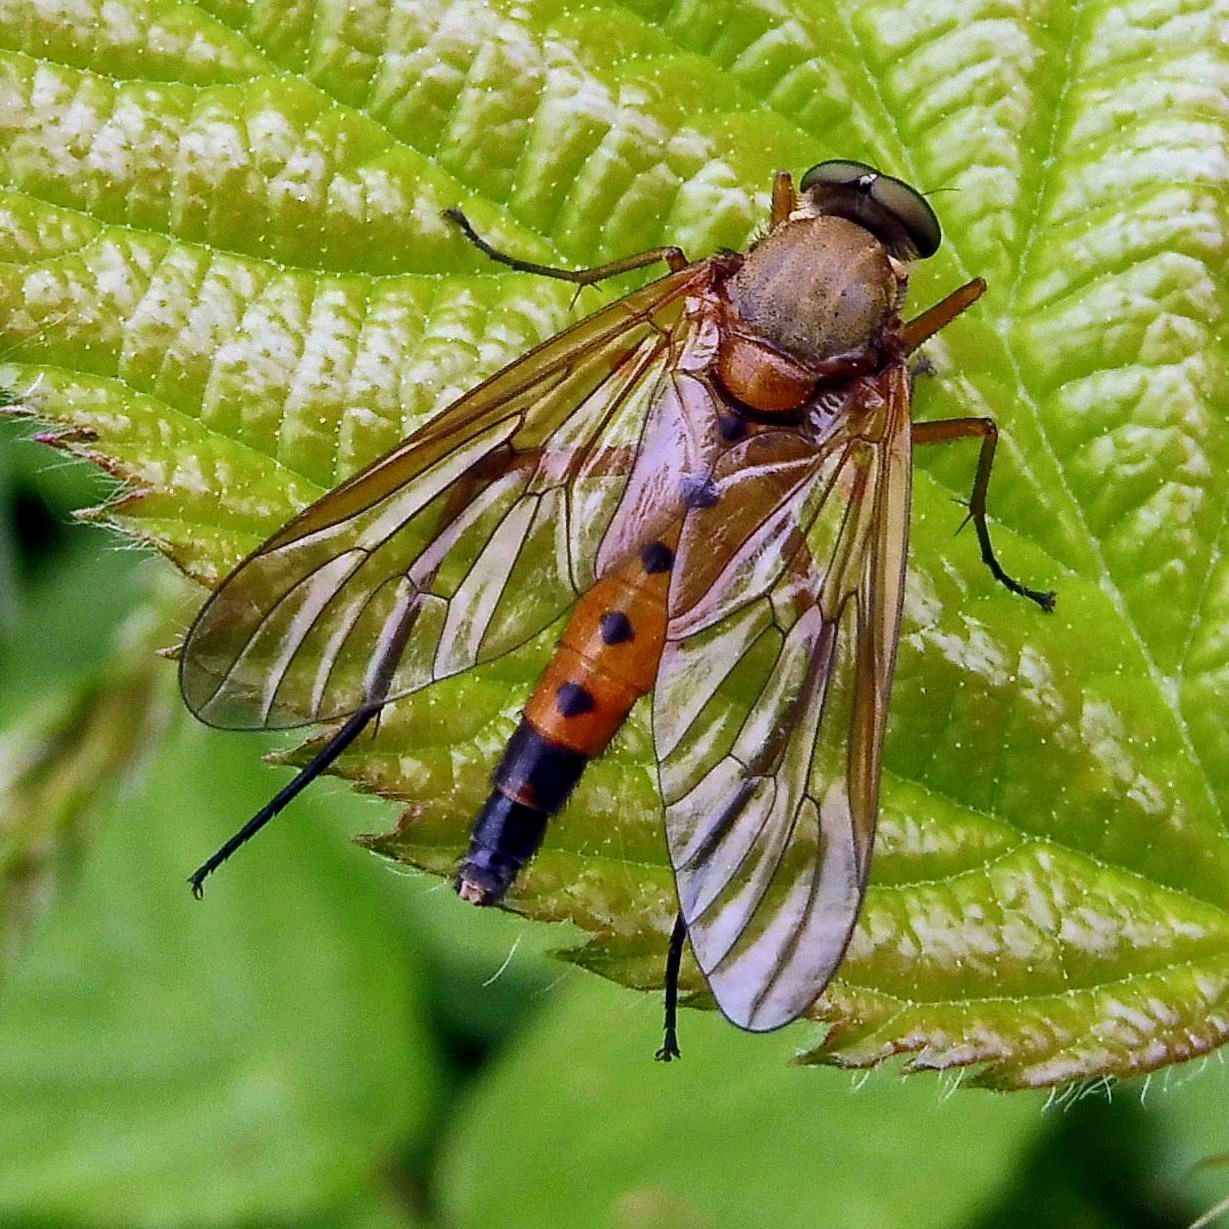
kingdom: Animalia
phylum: Arthropoda
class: Insecta
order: Diptera
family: Rhagionidae
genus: Rhagio
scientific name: Rhagio tringaria
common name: Marsh snipefly
